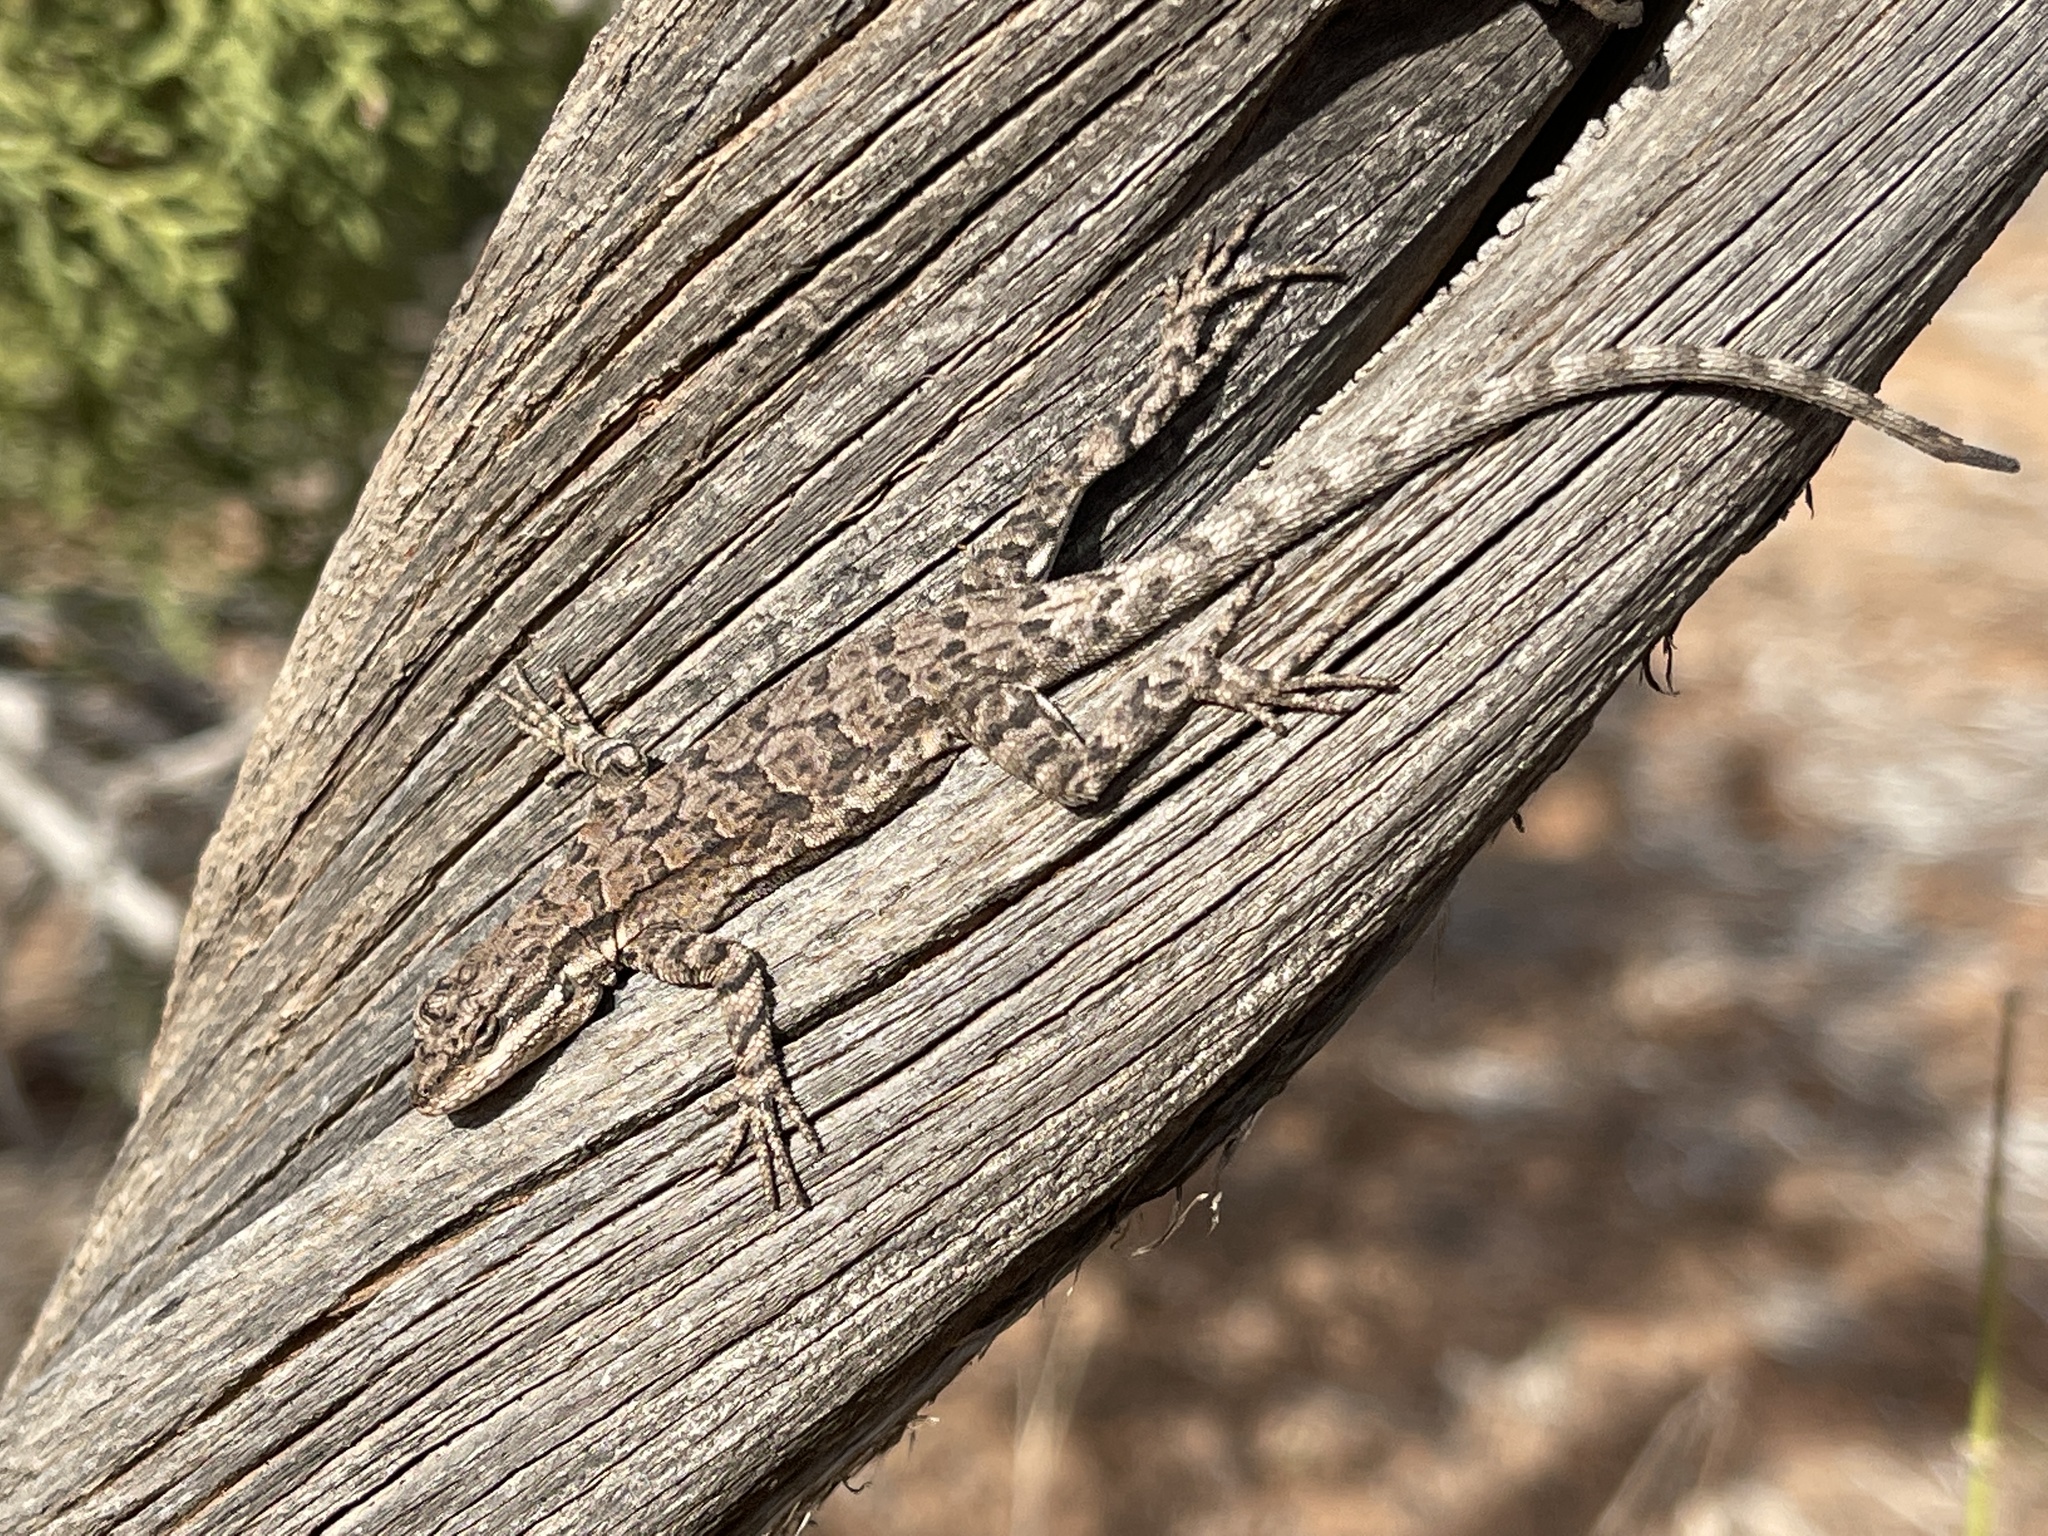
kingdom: Animalia
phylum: Chordata
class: Squamata
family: Phrynosomatidae
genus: Urosaurus
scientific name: Urosaurus ornatus
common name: Ornate tree lizard
